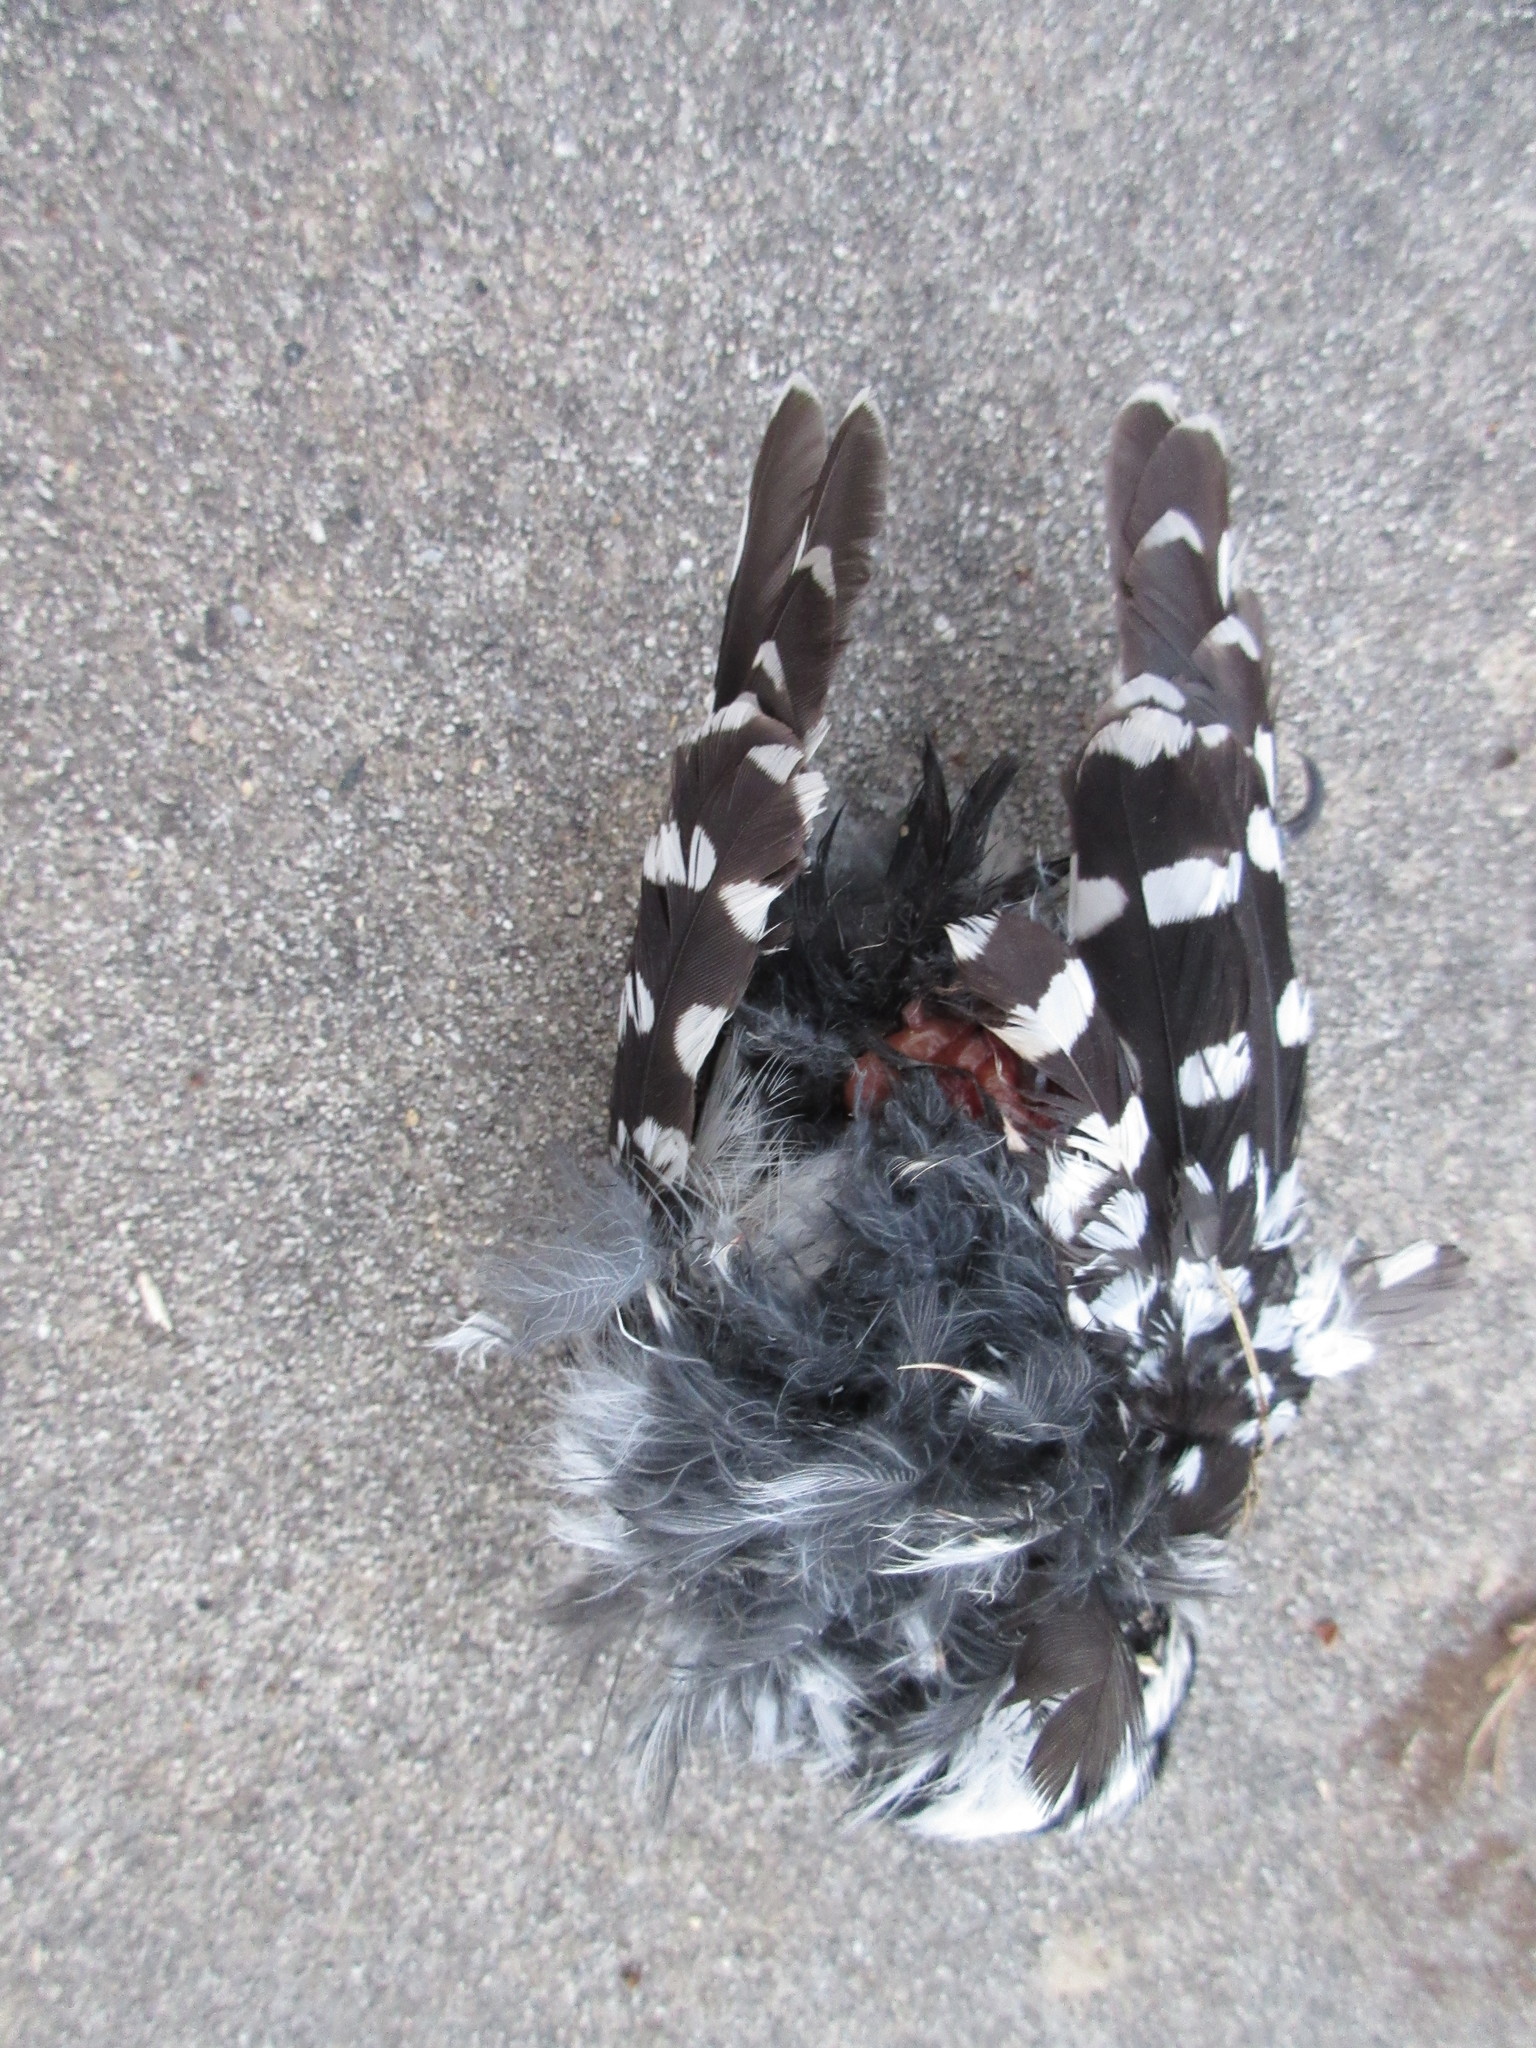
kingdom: Animalia
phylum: Chordata
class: Aves
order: Piciformes
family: Picidae
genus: Dryobates
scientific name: Dryobates pubescens
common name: Downy woodpecker
